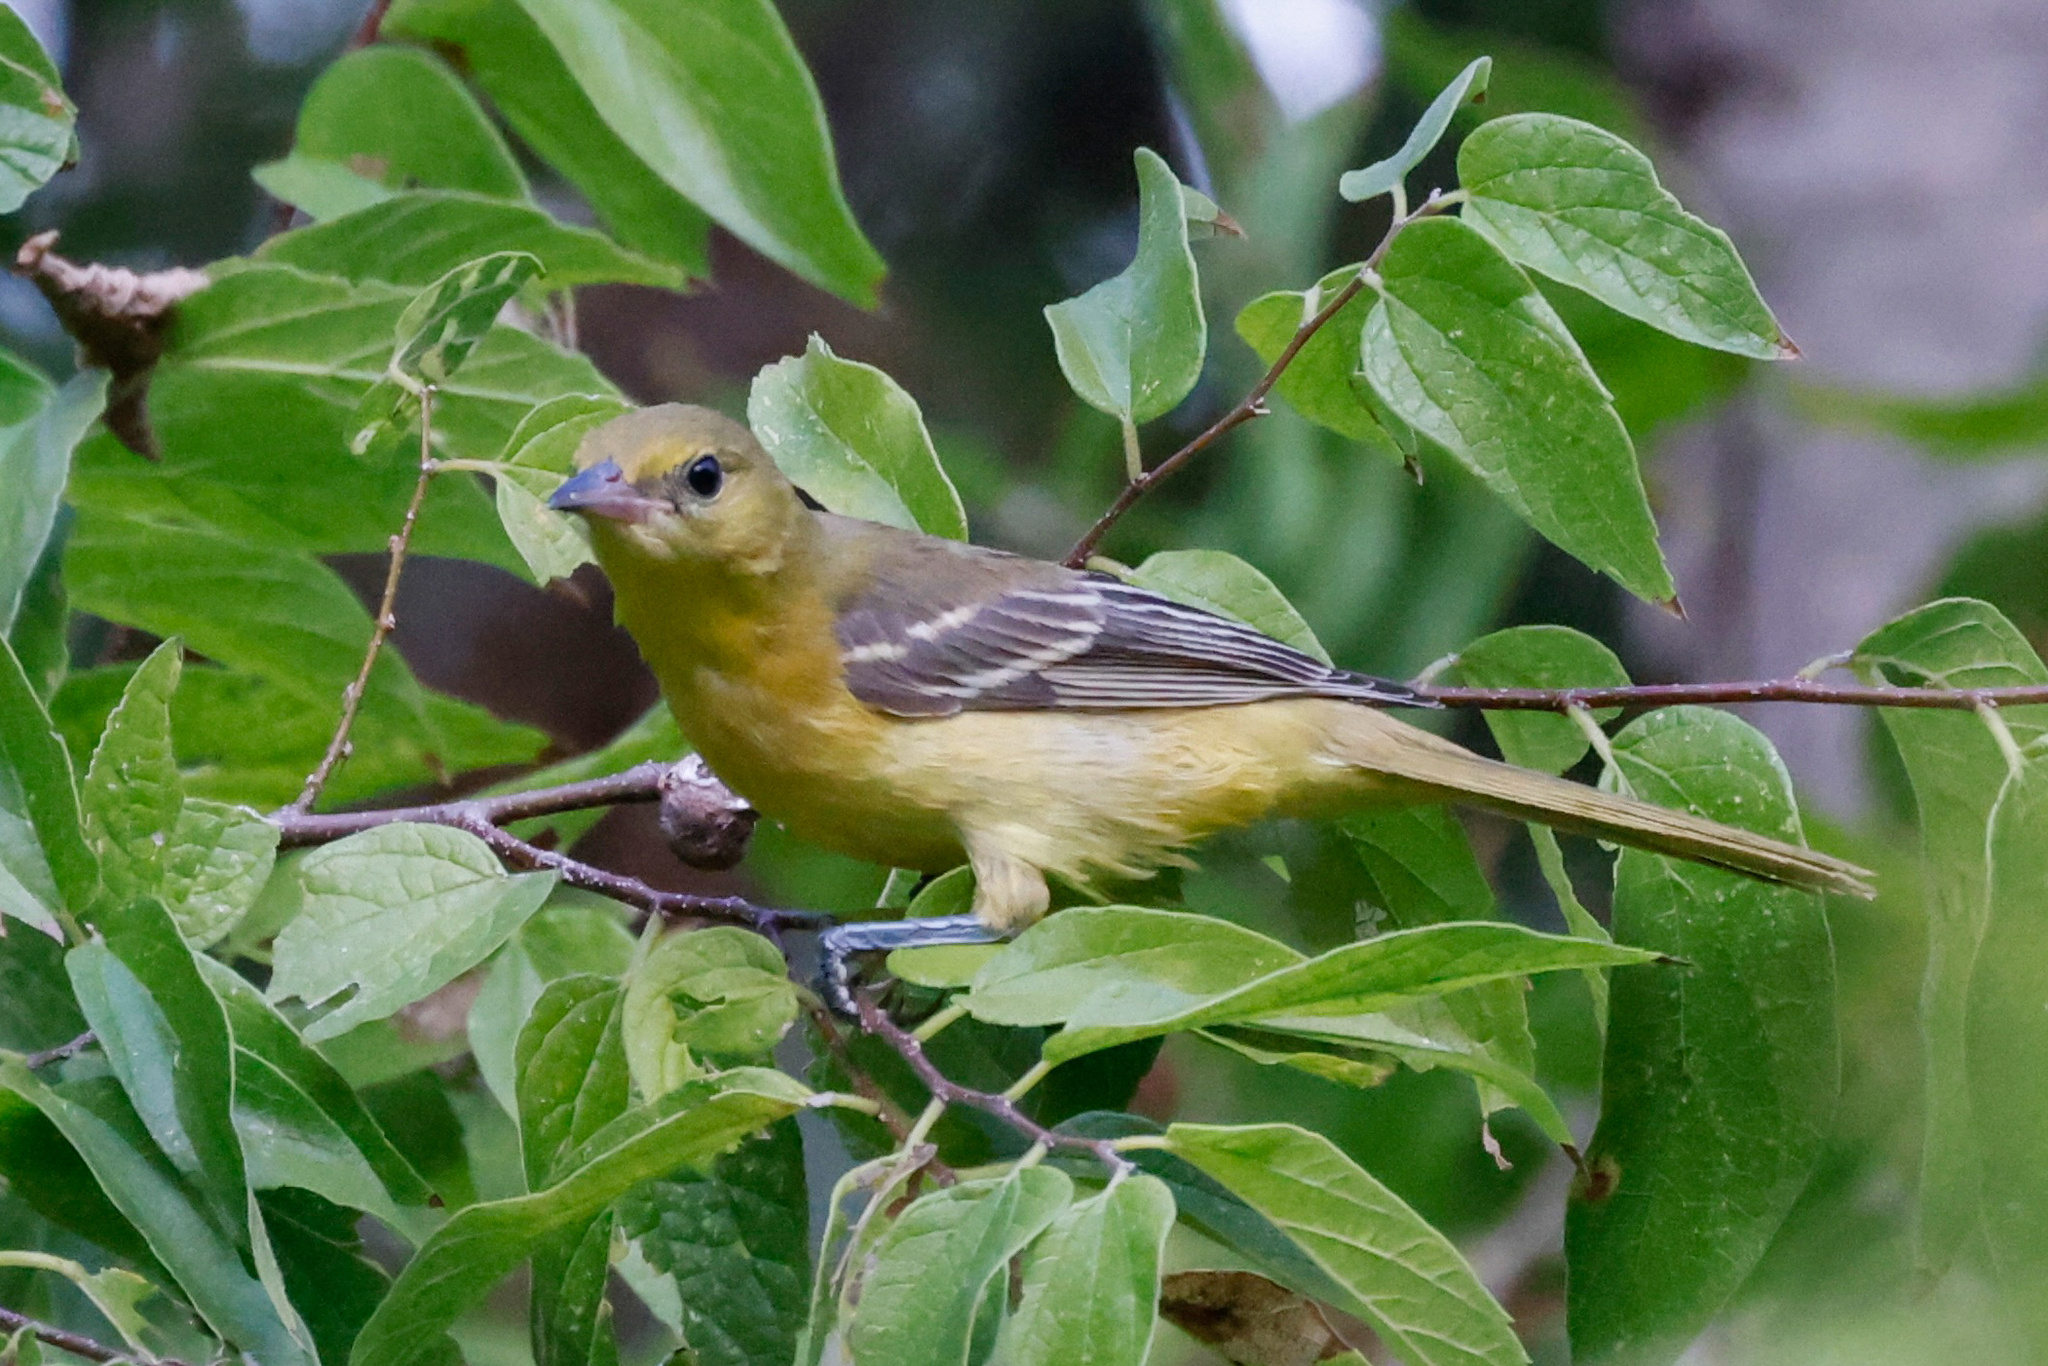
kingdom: Animalia
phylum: Chordata
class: Aves
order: Passeriformes
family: Icteridae
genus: Icterus
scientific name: Icterus spurius
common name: Orchard oriole
